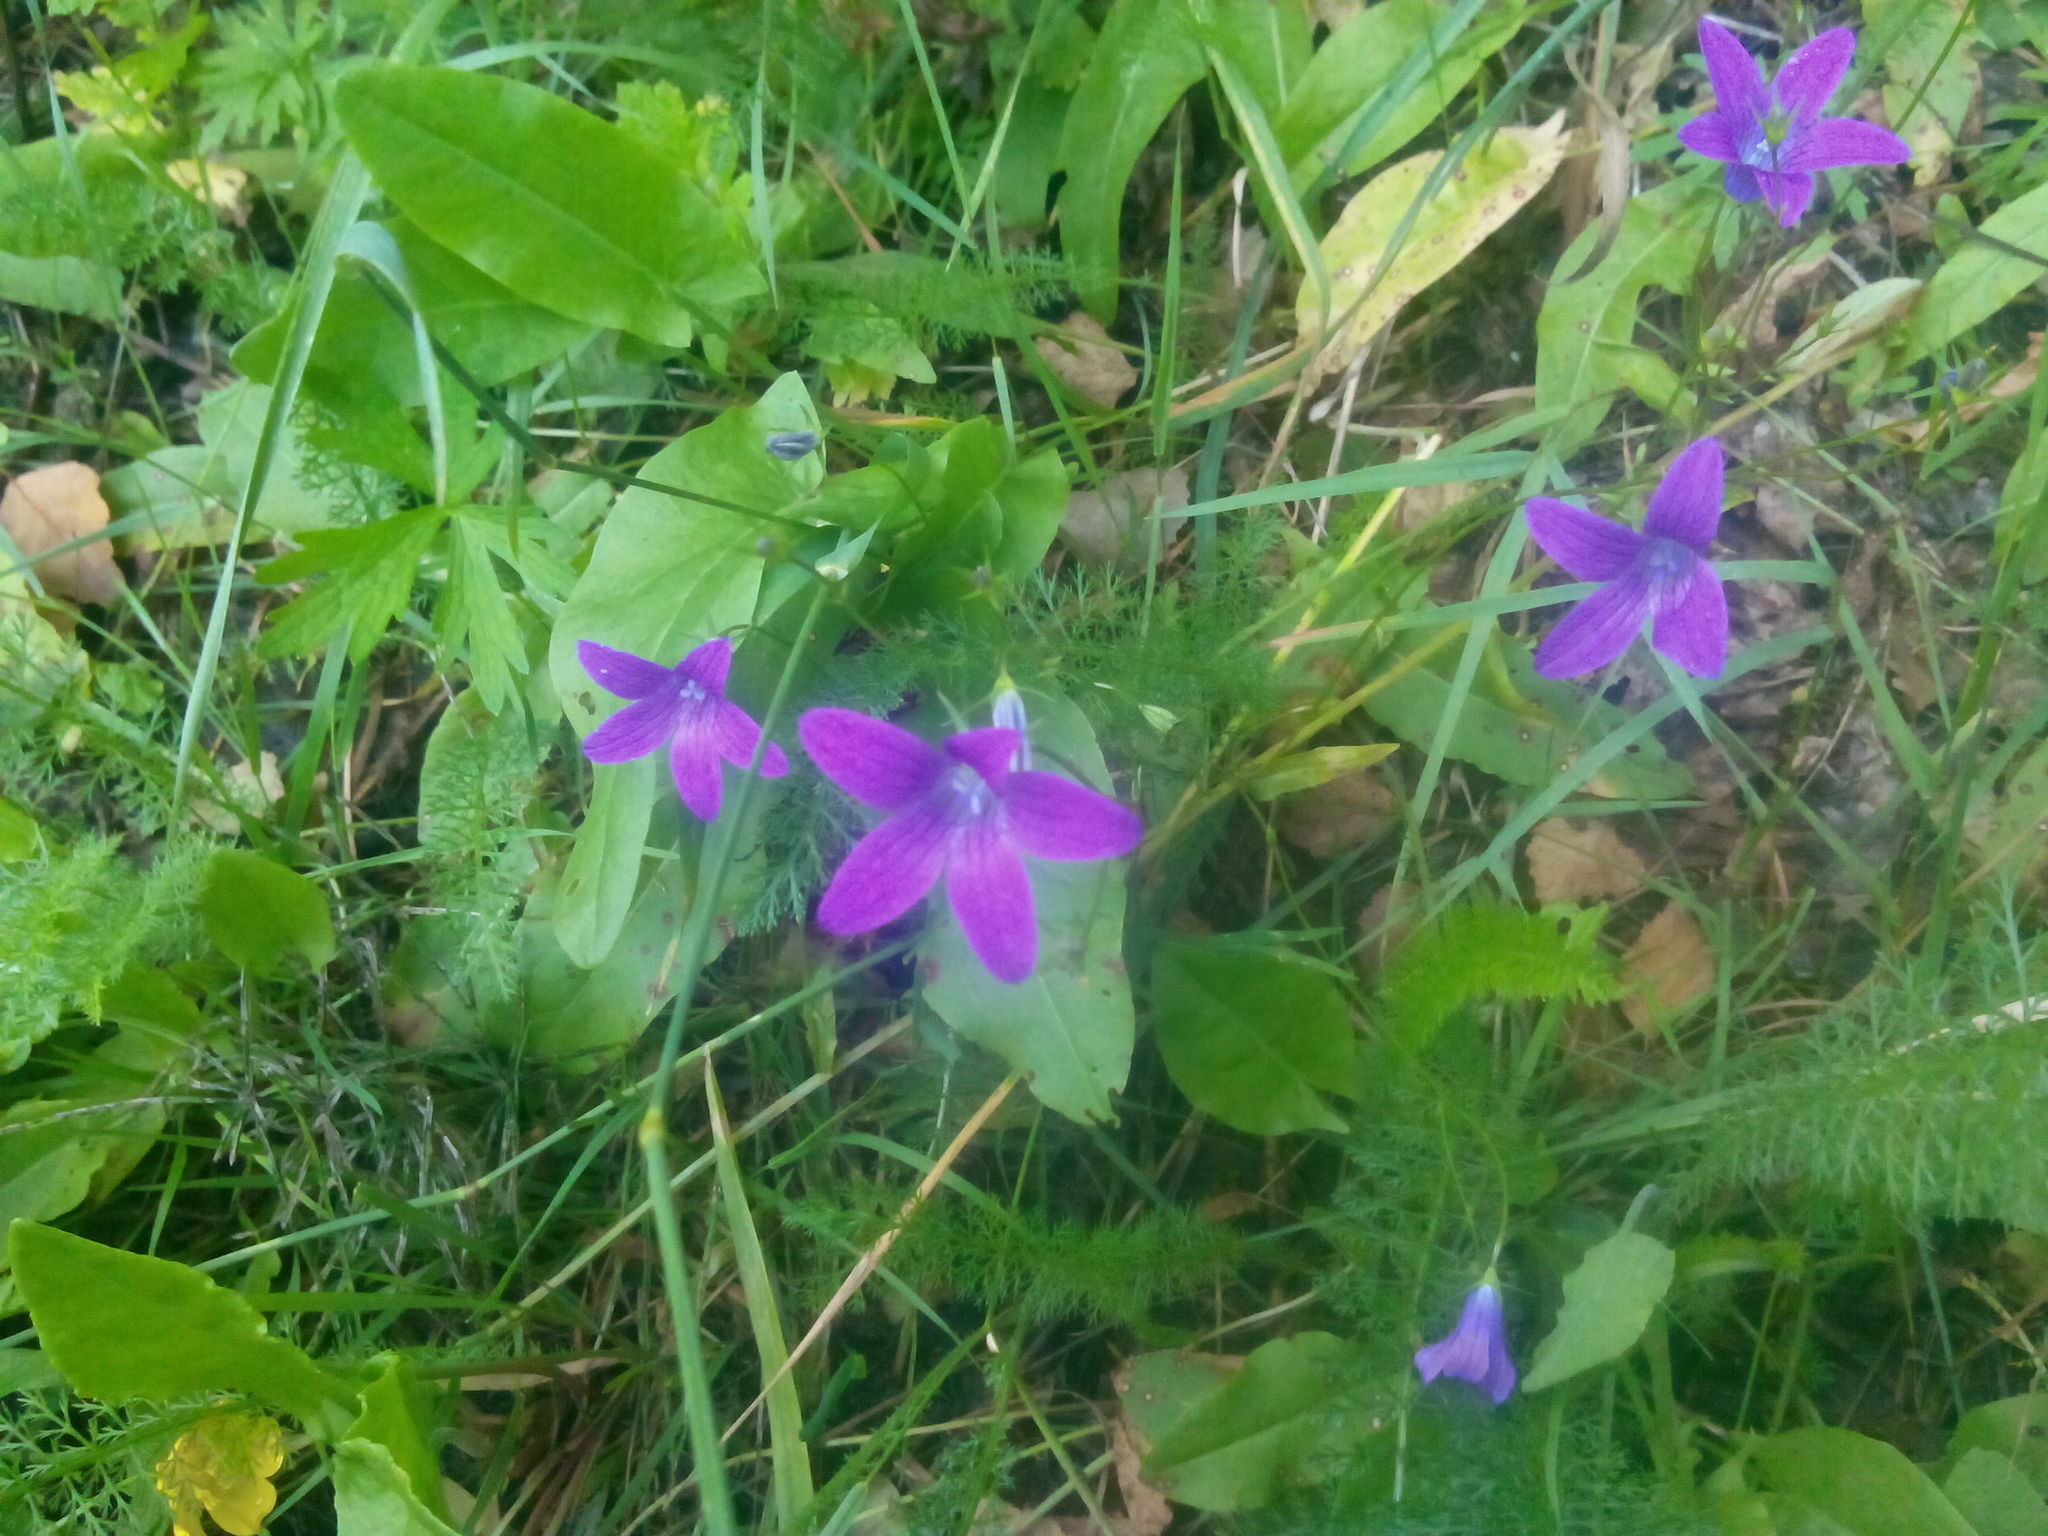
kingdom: Plantae
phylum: Tracheophyta
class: Magnoliopsida
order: Asterales
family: Campanulaceae
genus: Campanula
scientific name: Campanula patula
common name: Spreading bellflower
